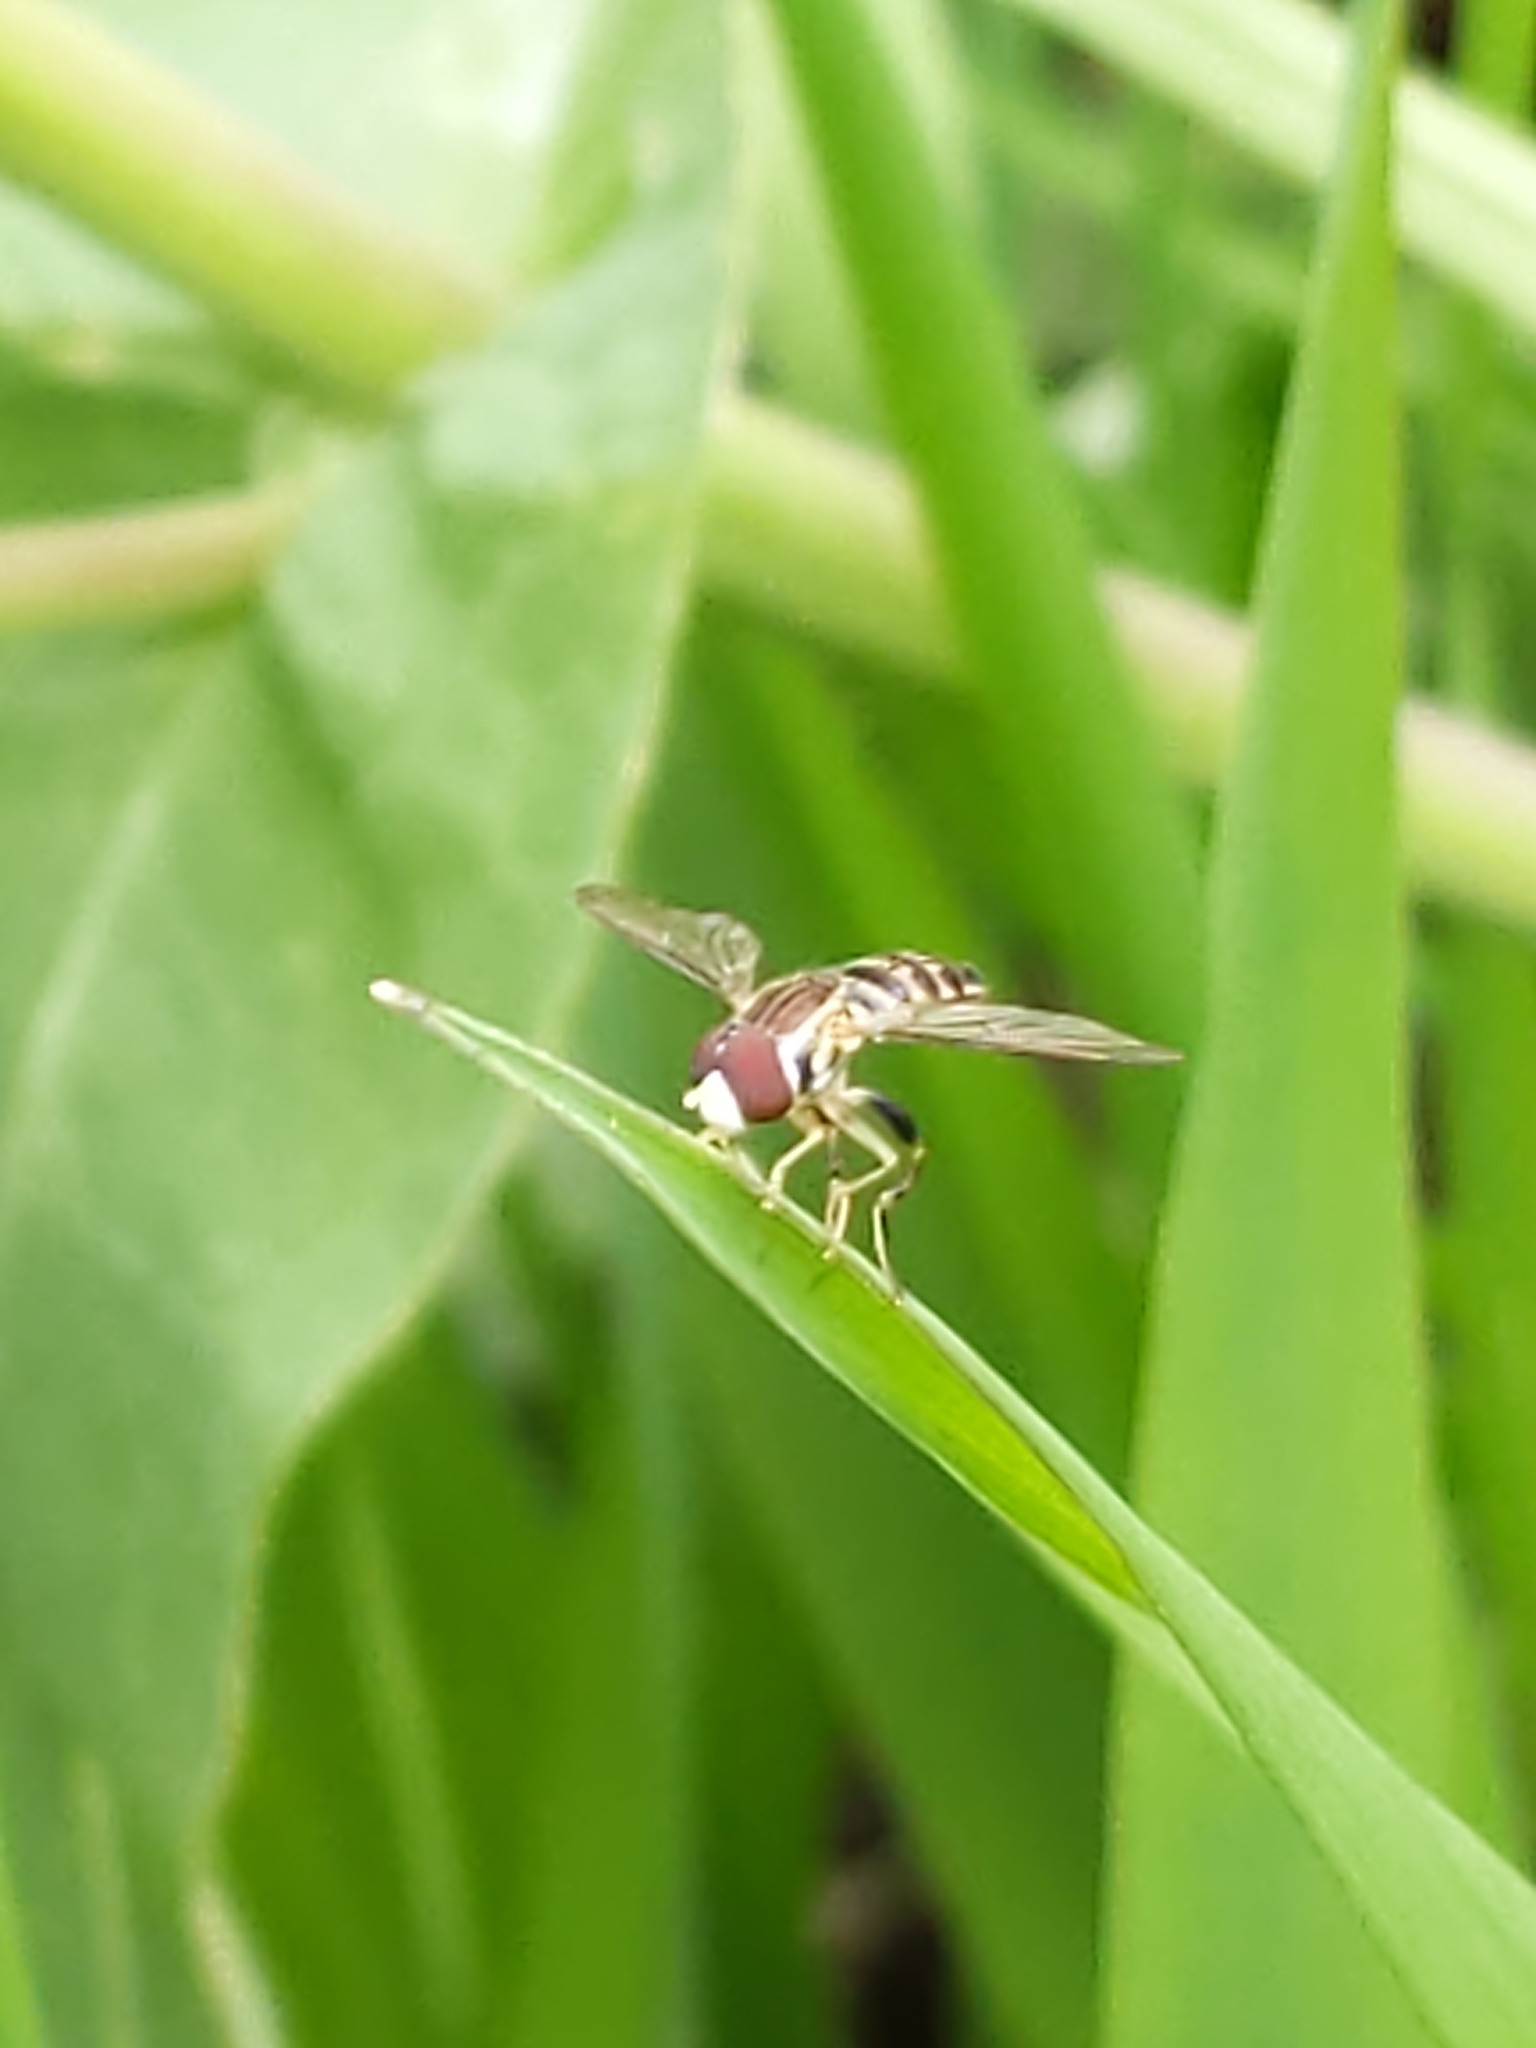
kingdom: Animalia
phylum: Arthropoda
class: Insecta
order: Diptera
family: Syrphidae
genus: Toxomerus
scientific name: Toxomerus geminatus
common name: Eastern calligrapher
